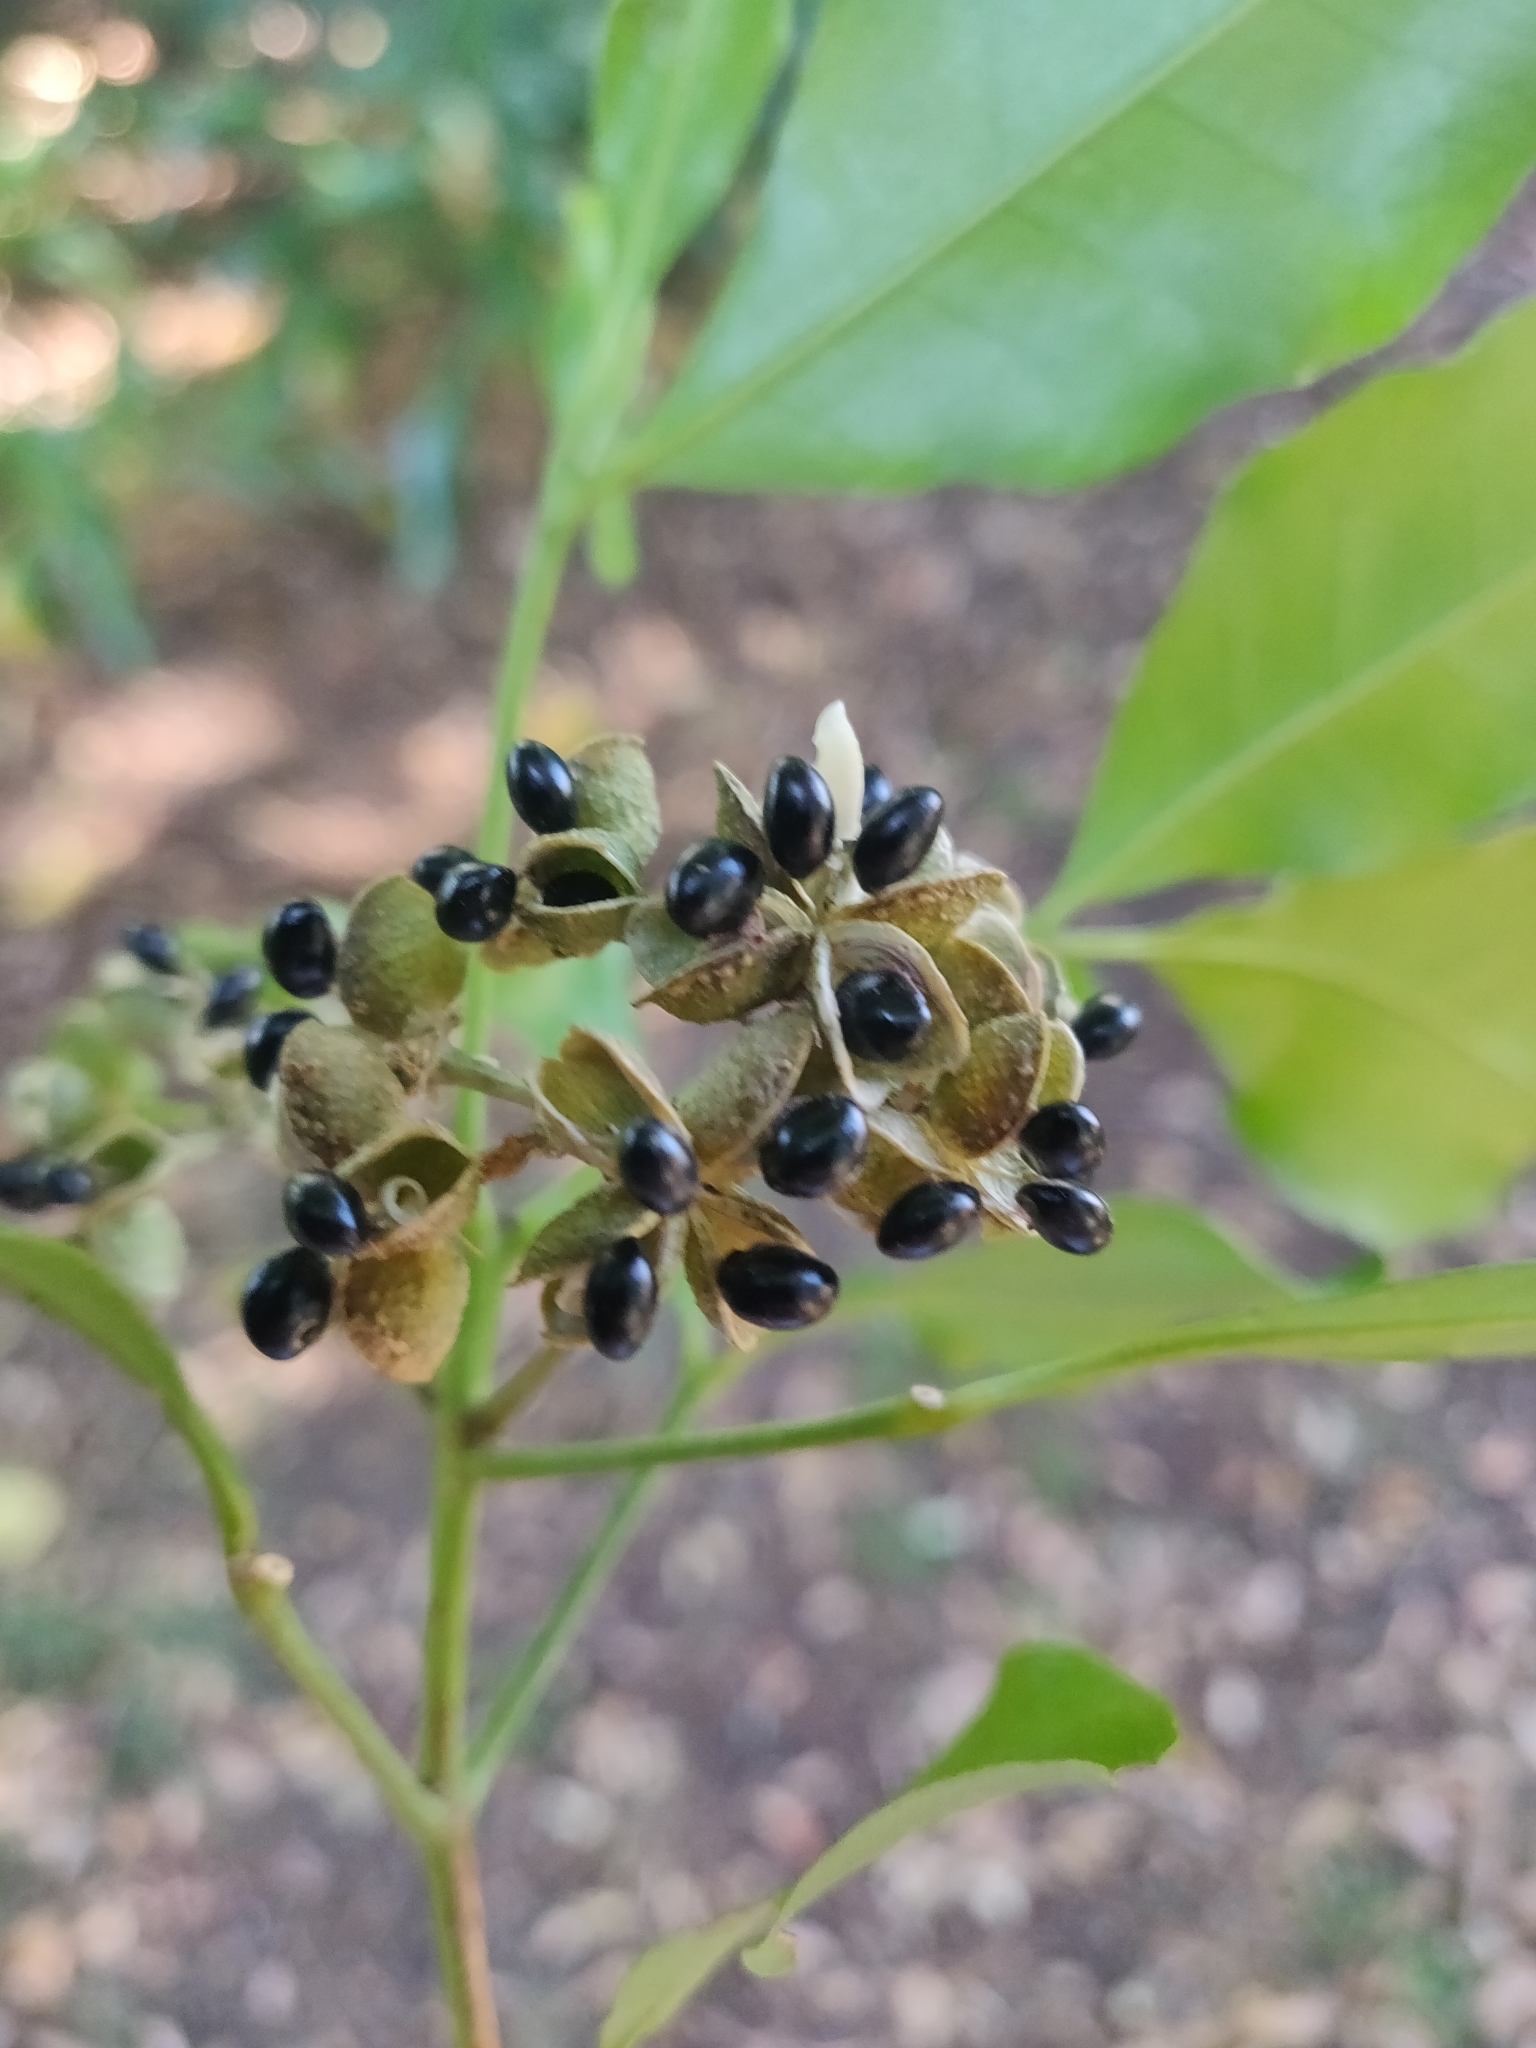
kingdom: Plantae
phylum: Tracheophyta
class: Magnoliopsida
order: Sapindales
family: Rutaceae
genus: Melicope
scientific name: Melicope ternata
